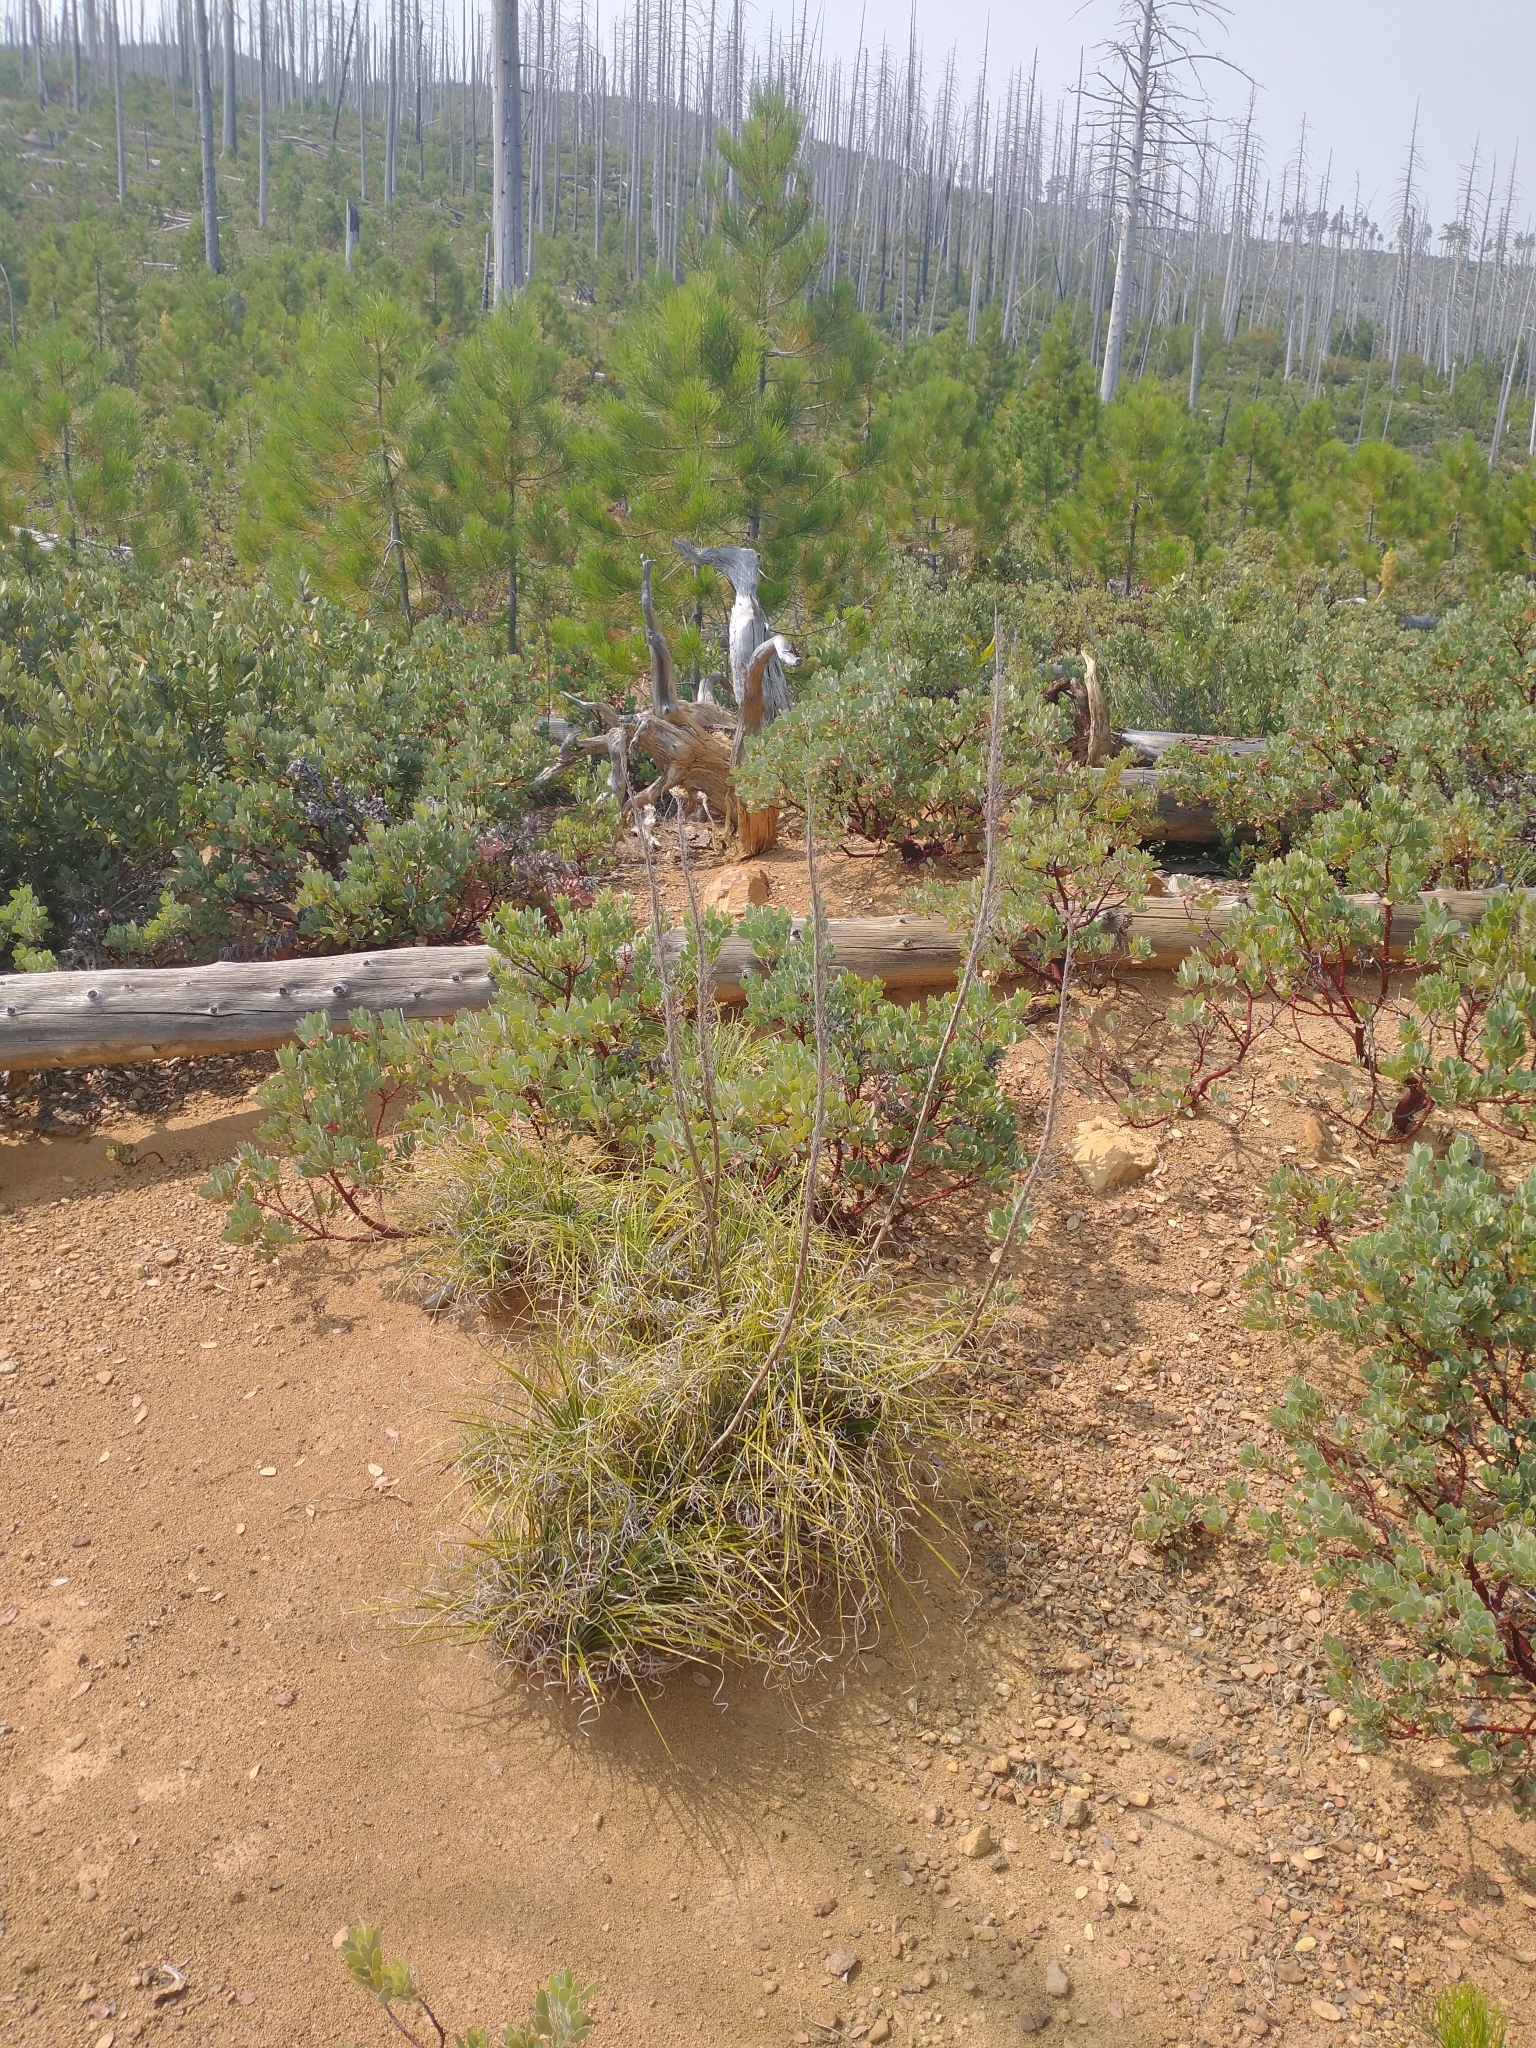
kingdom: Plantae
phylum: Tracheophyta
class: Pinopsida
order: Pinales
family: Pinaceae
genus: Pinus
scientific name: Pinus attenuata
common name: Knobcone pine
